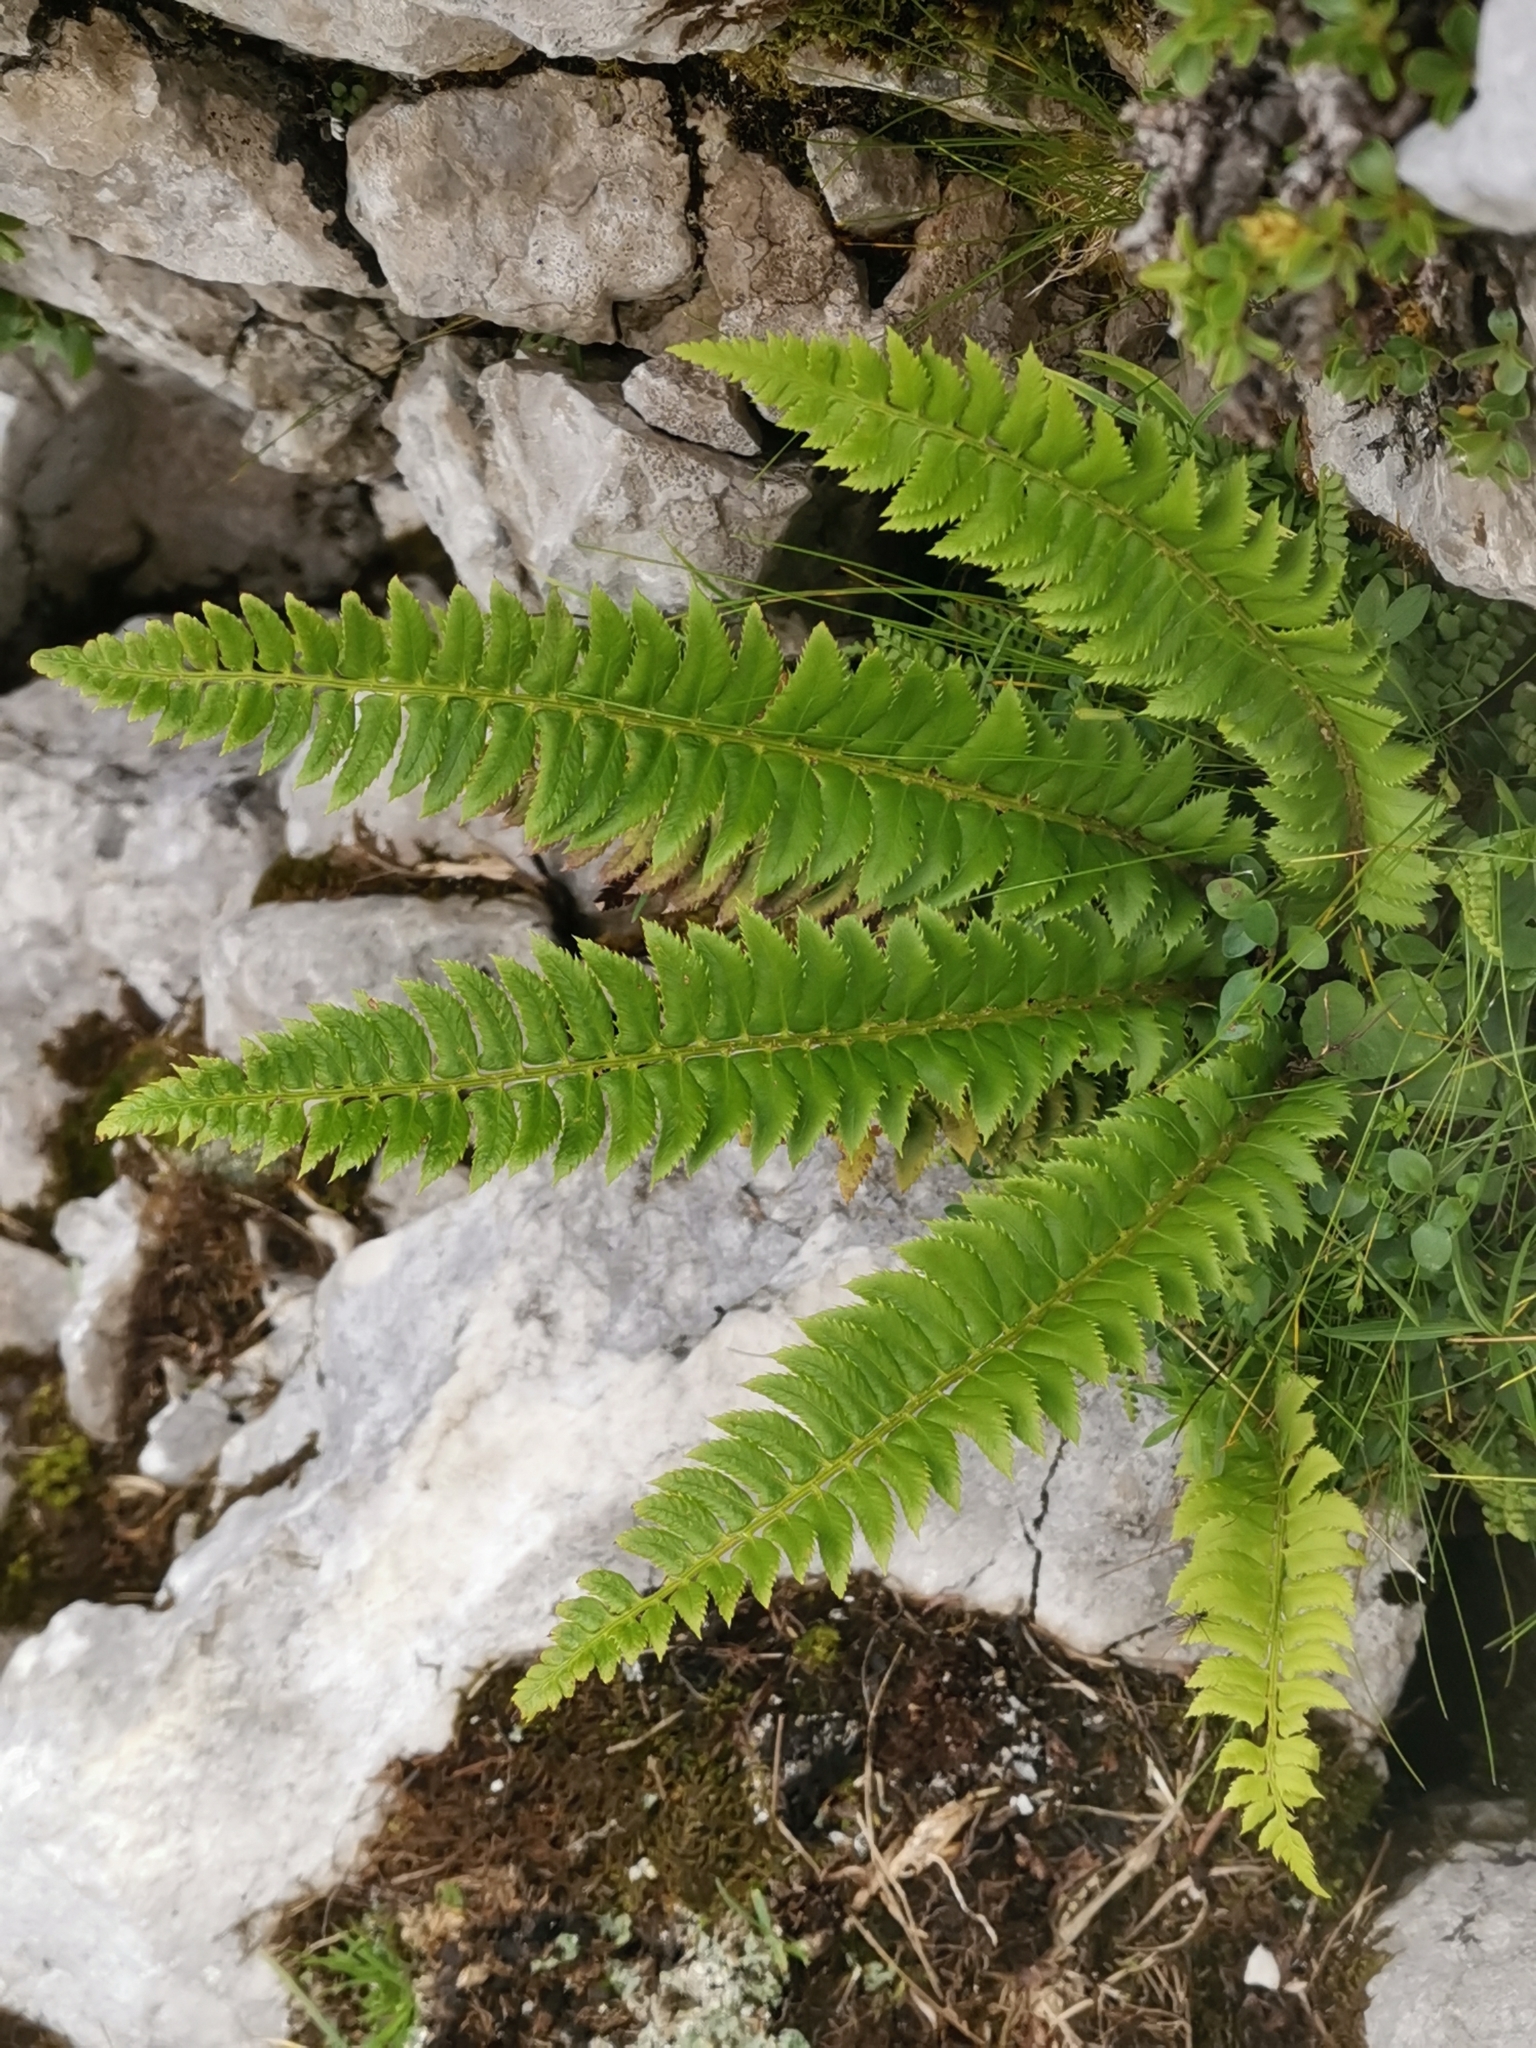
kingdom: Plantae
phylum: Tracheophyta
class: Polypodiopsida
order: Polypodiales
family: Dryopteridaceae
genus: Polystichum
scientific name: Polystichum lonchitis
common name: Holly fern
